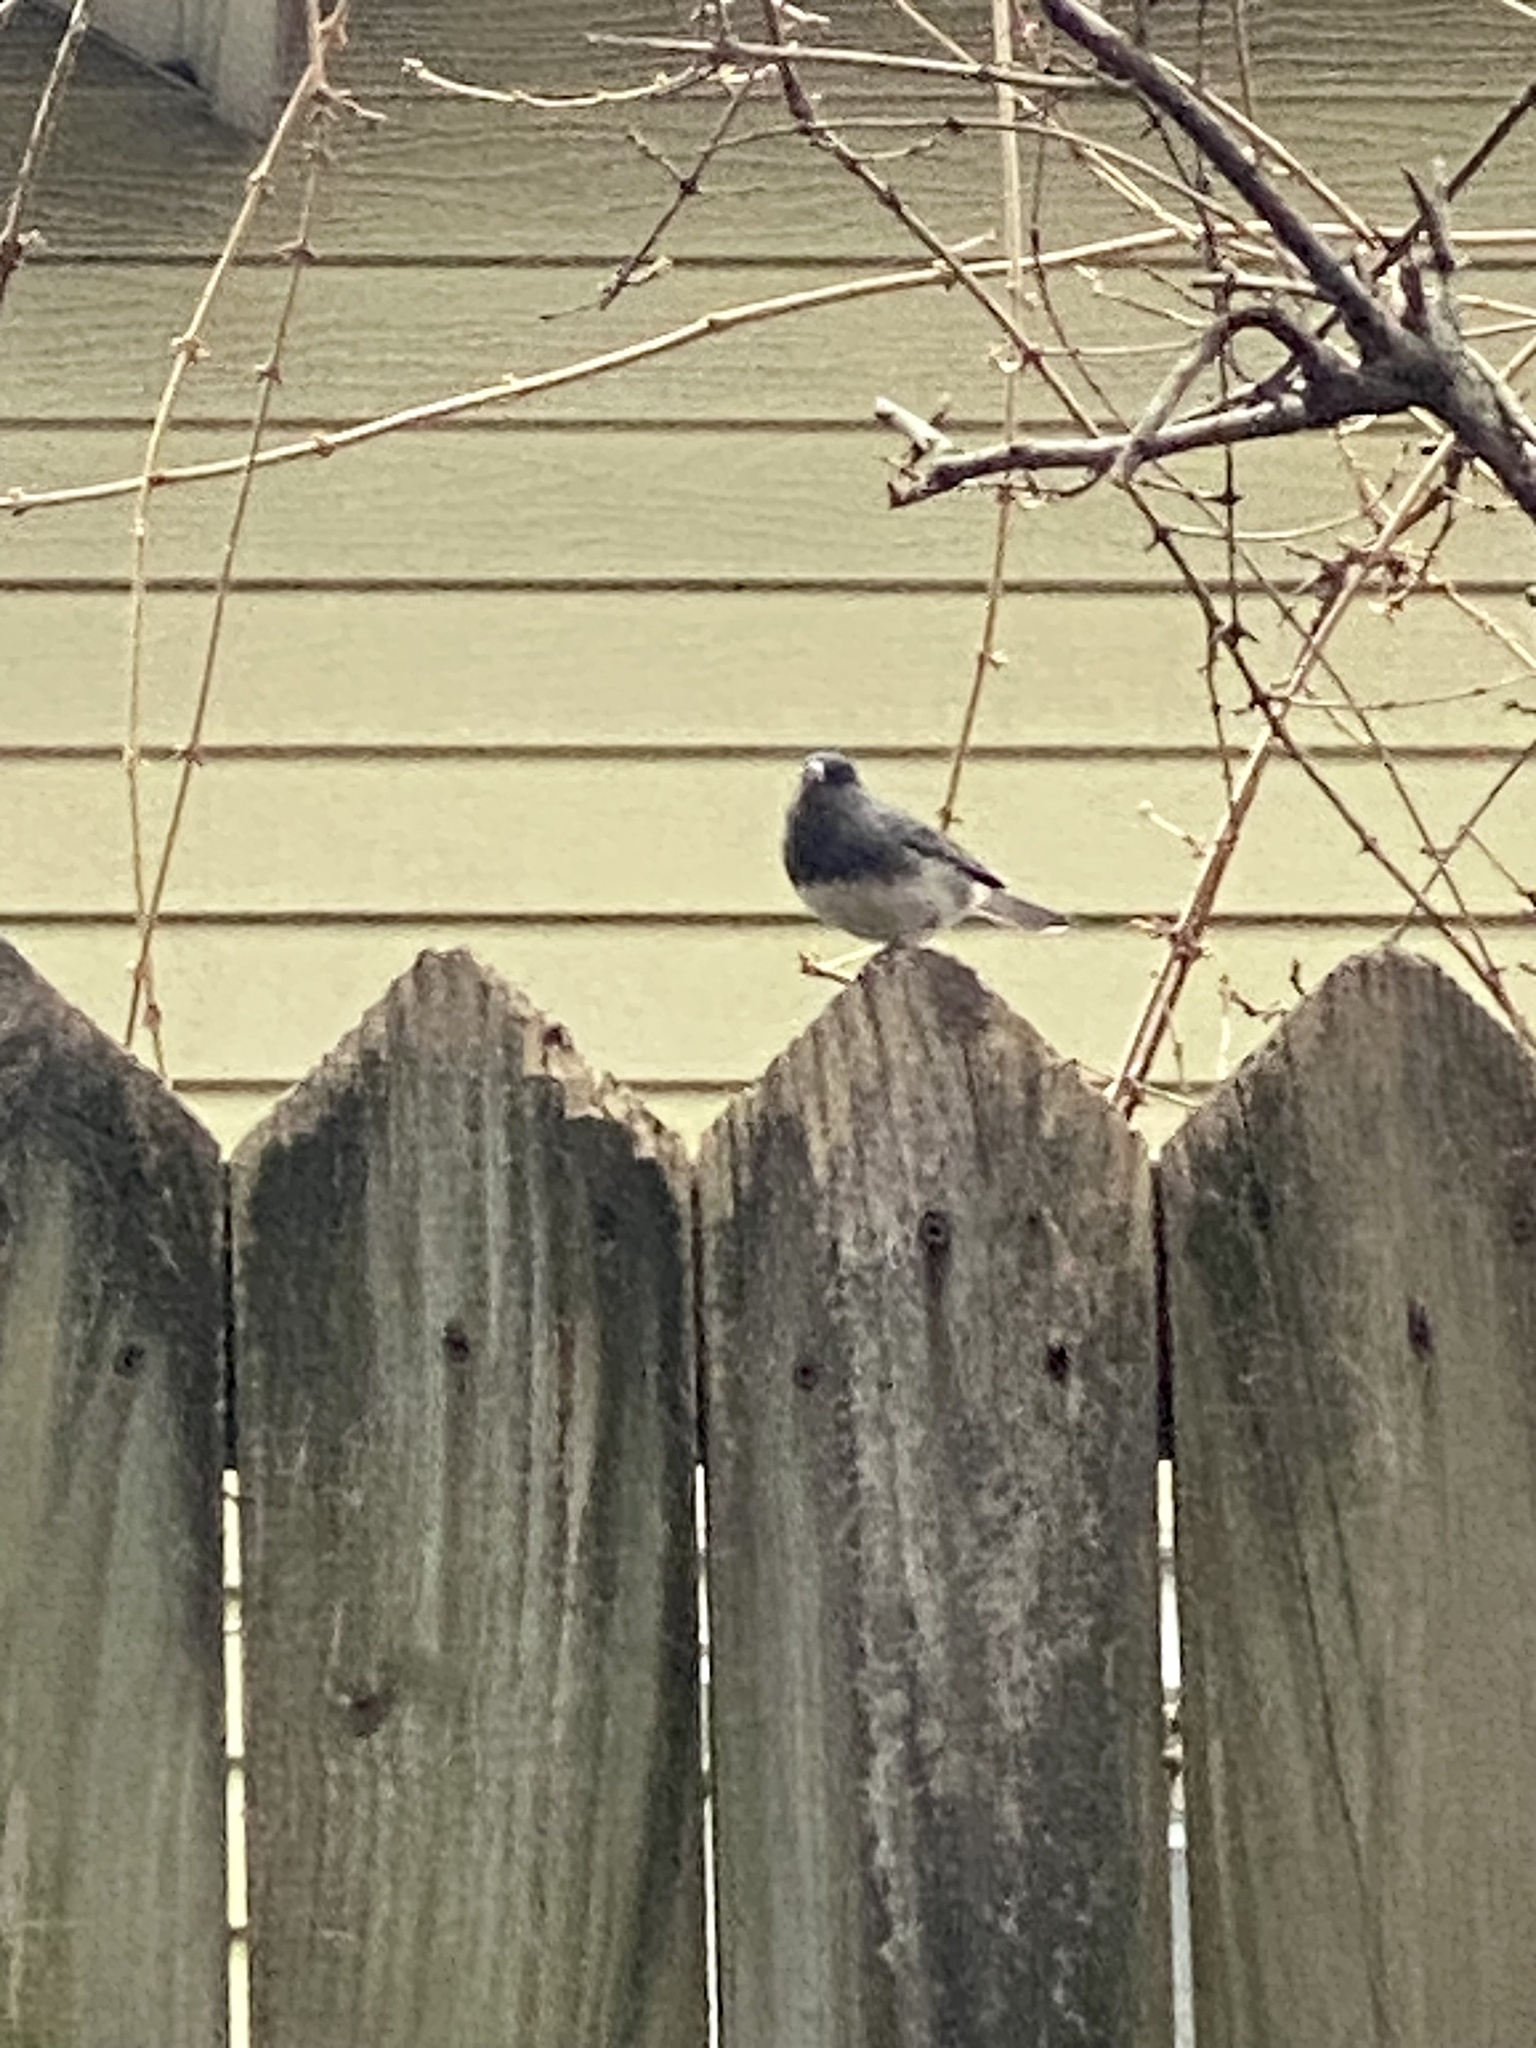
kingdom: Animalia
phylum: Chordata
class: Aves
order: Passeriformes
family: Passerellidae
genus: Junco
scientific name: Junco hyemalis
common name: Dark-eyed junco
